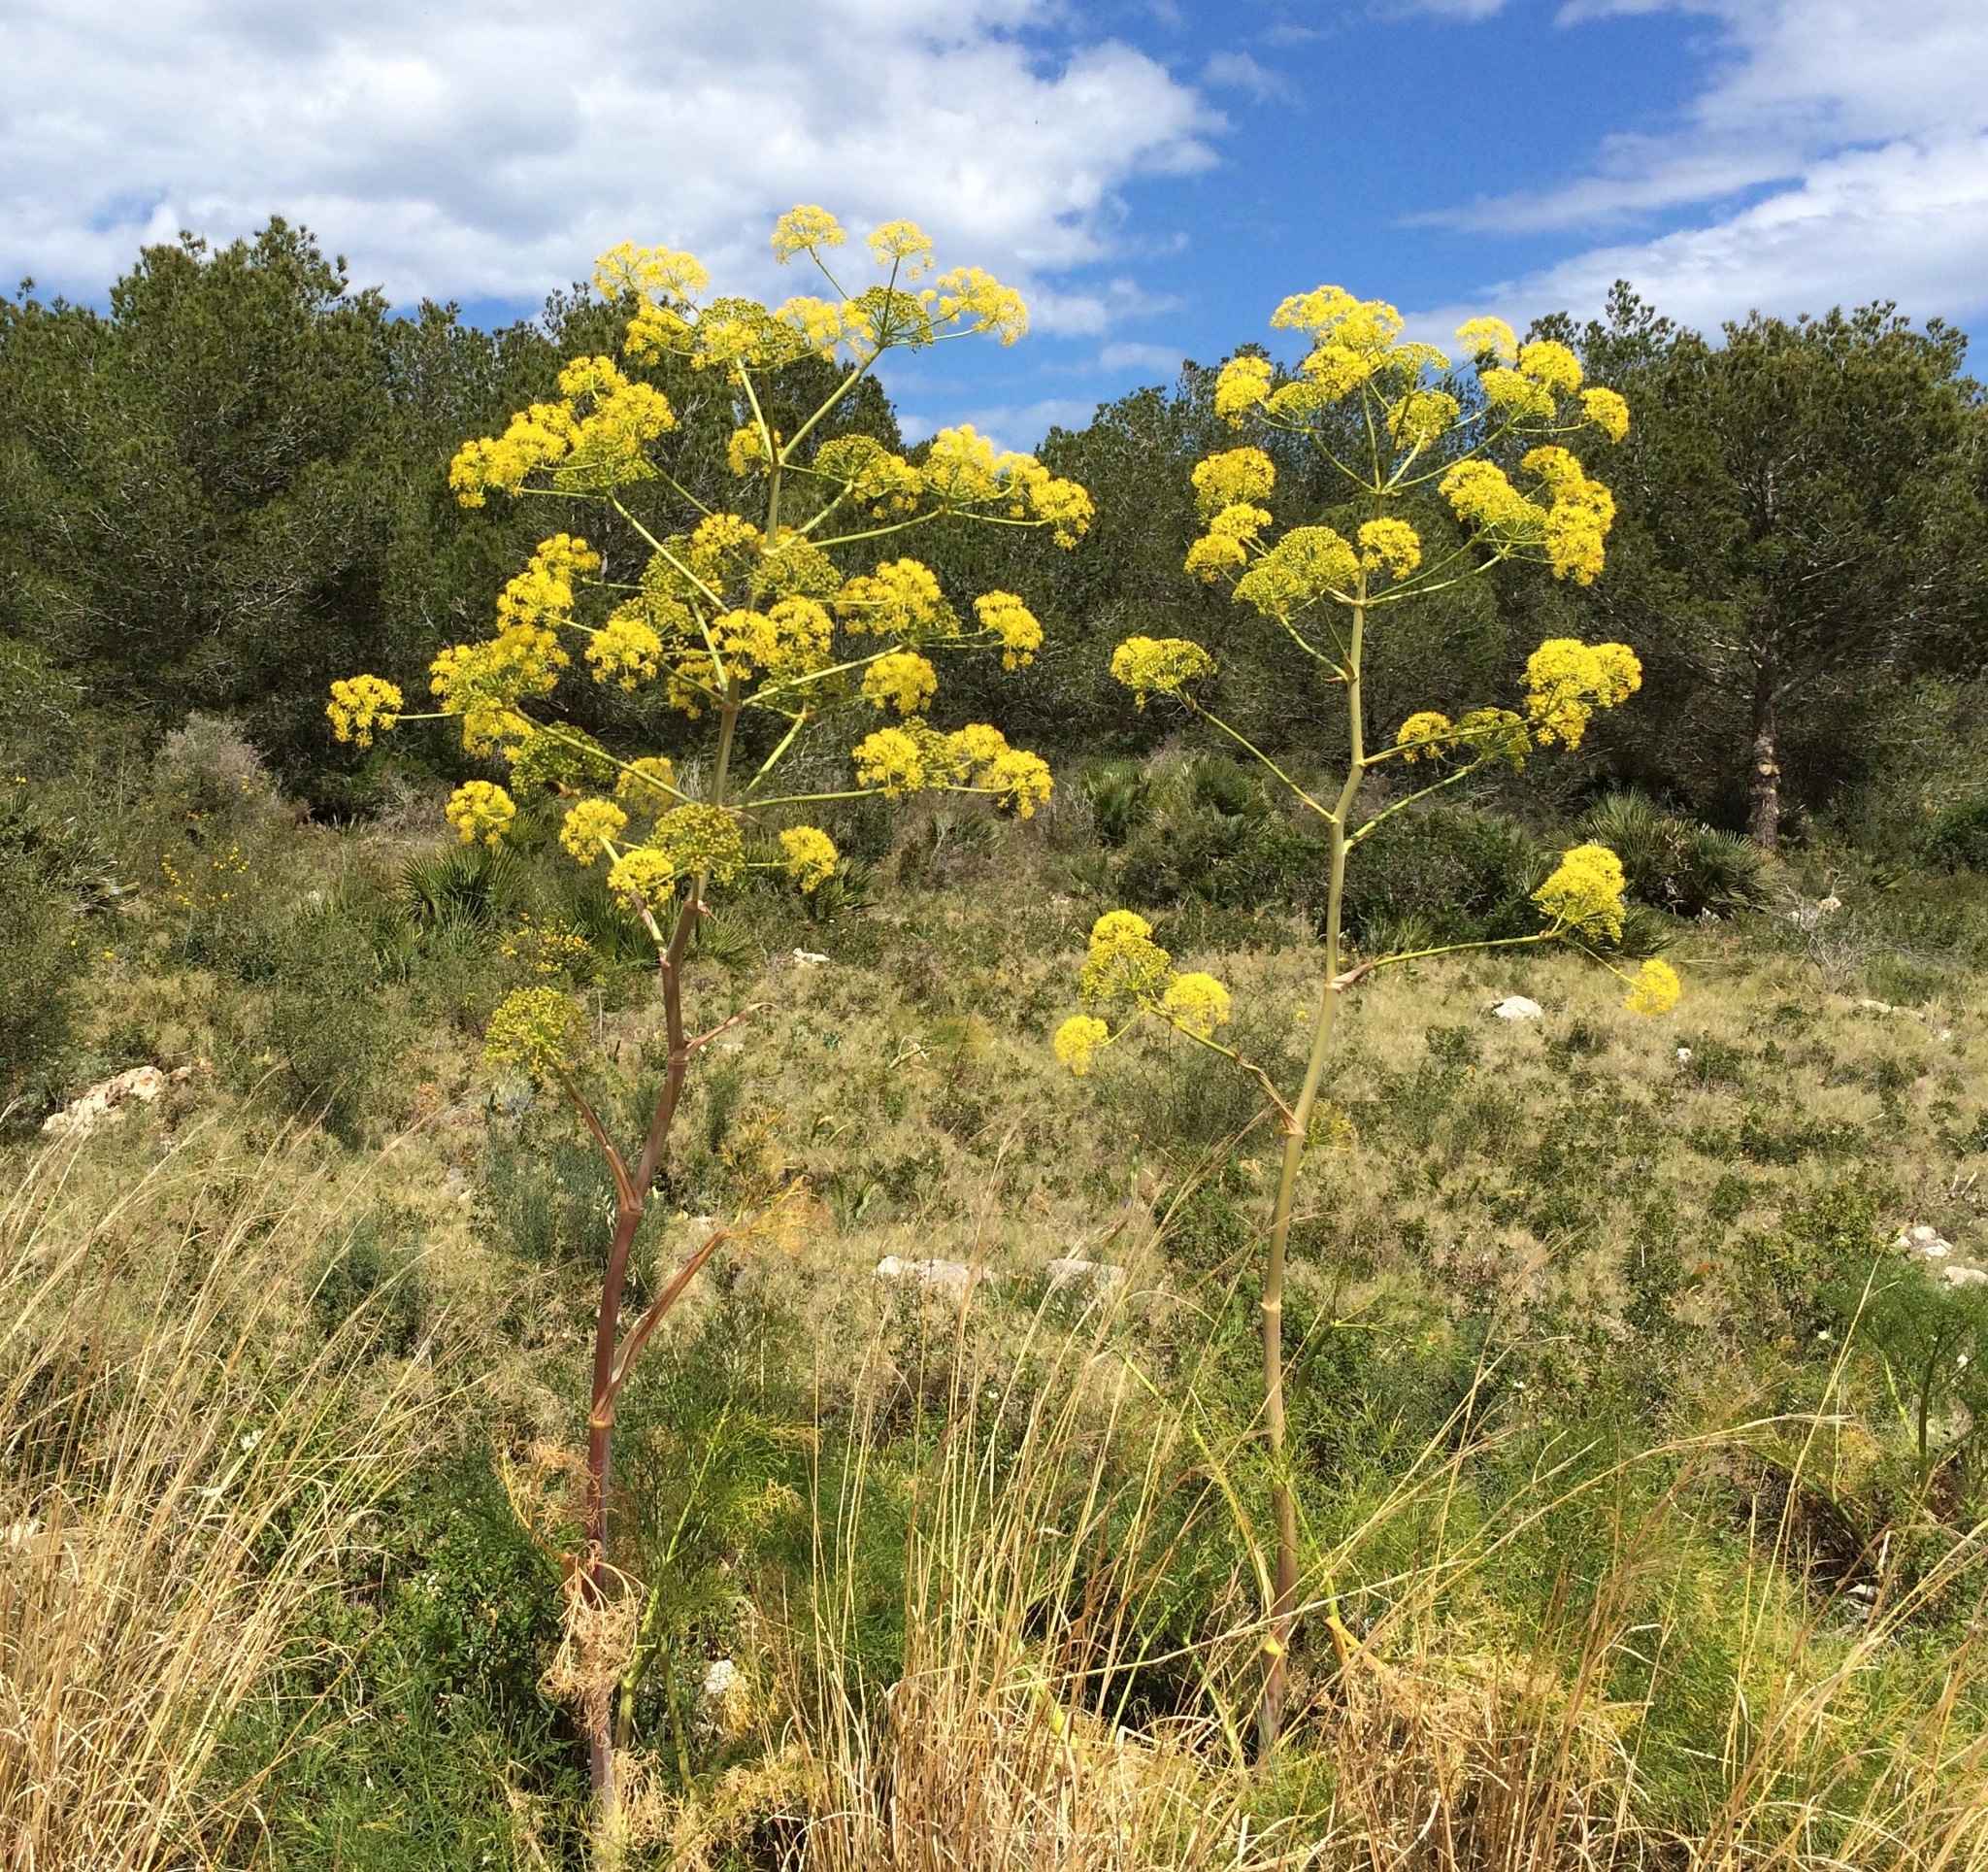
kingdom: Plantae
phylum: Tracheophyta
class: Magnoliopsida
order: Apiales
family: Apiaceae
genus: Ferula
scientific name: Ferula communis
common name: Giant fennel
